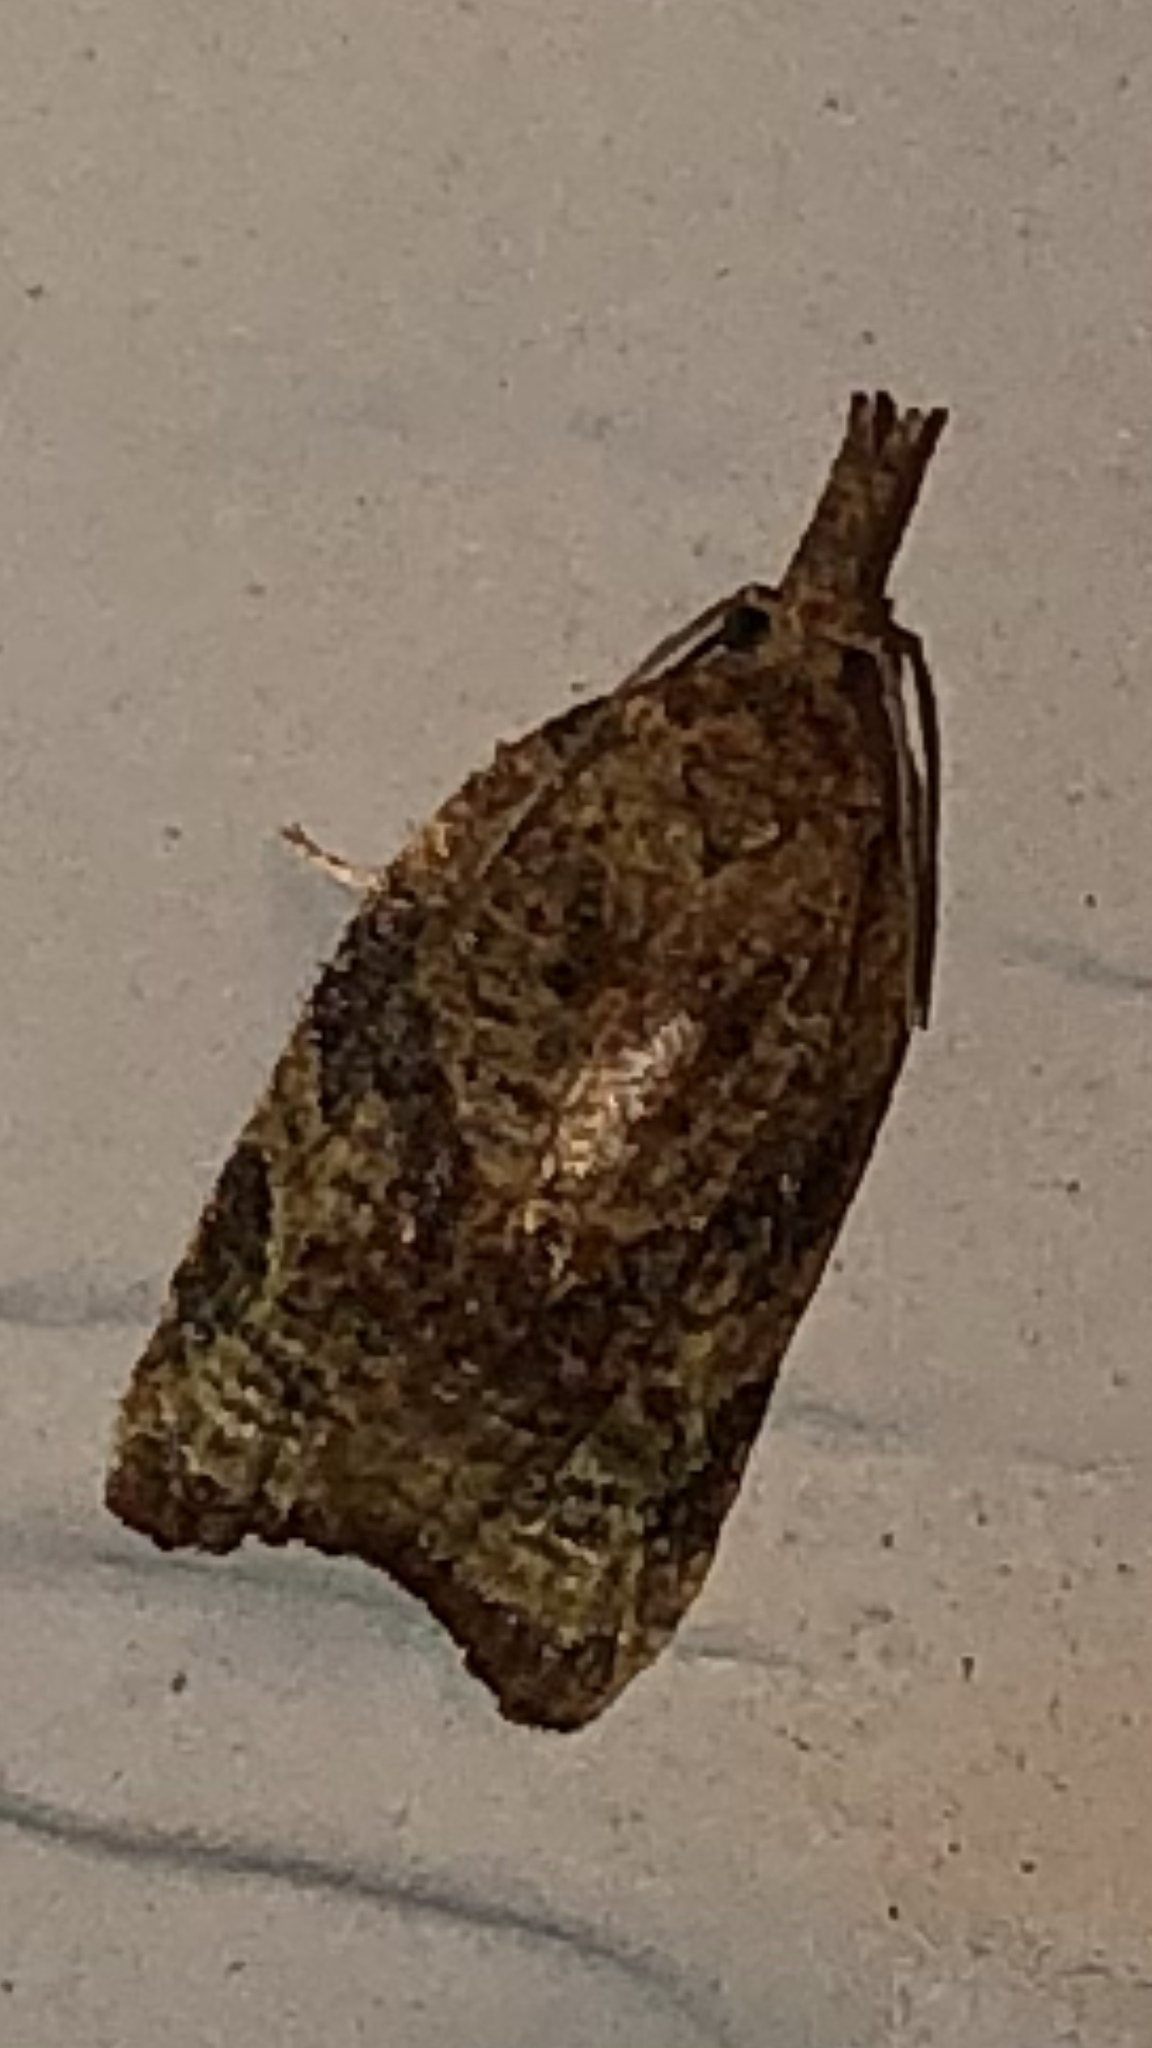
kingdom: Animalia
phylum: Arthropoda
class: Insecta
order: Lepidoptera
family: Tortricidae
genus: Platynota
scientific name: Platynota flavedana
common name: Black-shaded platynota moth
